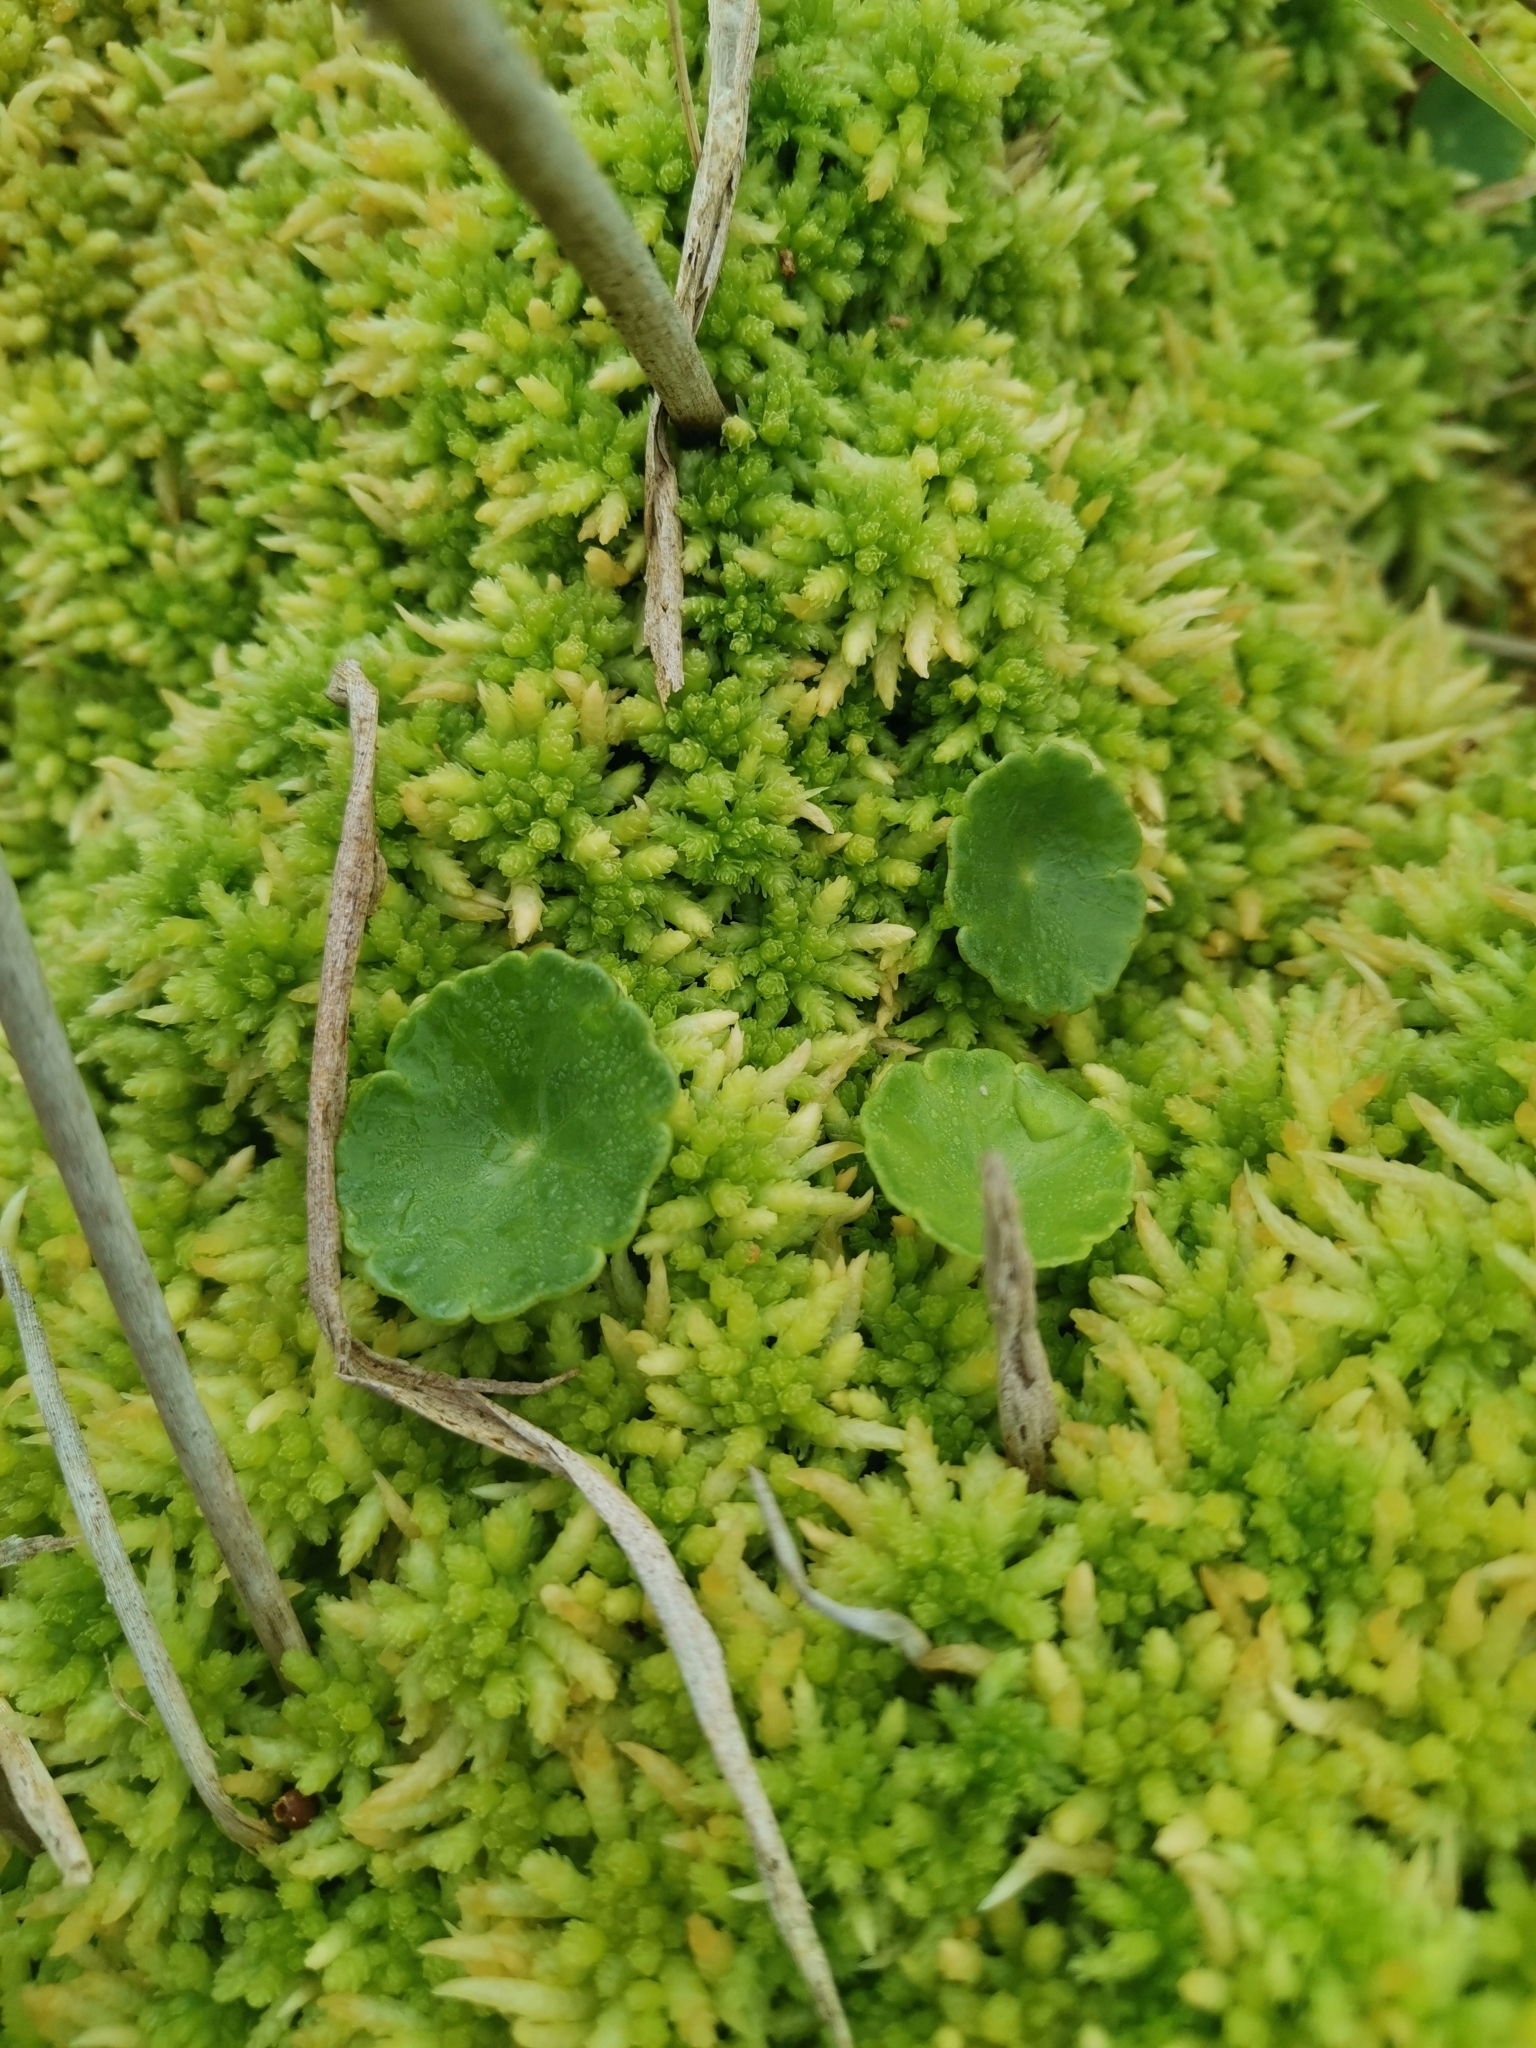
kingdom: Plantae
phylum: Tracheophyta
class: Magnoliopsida
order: Apiales
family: Araliaceae
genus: Hydrocotyle
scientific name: Hydrocotyle vulgaris
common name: Marsh pennywort
